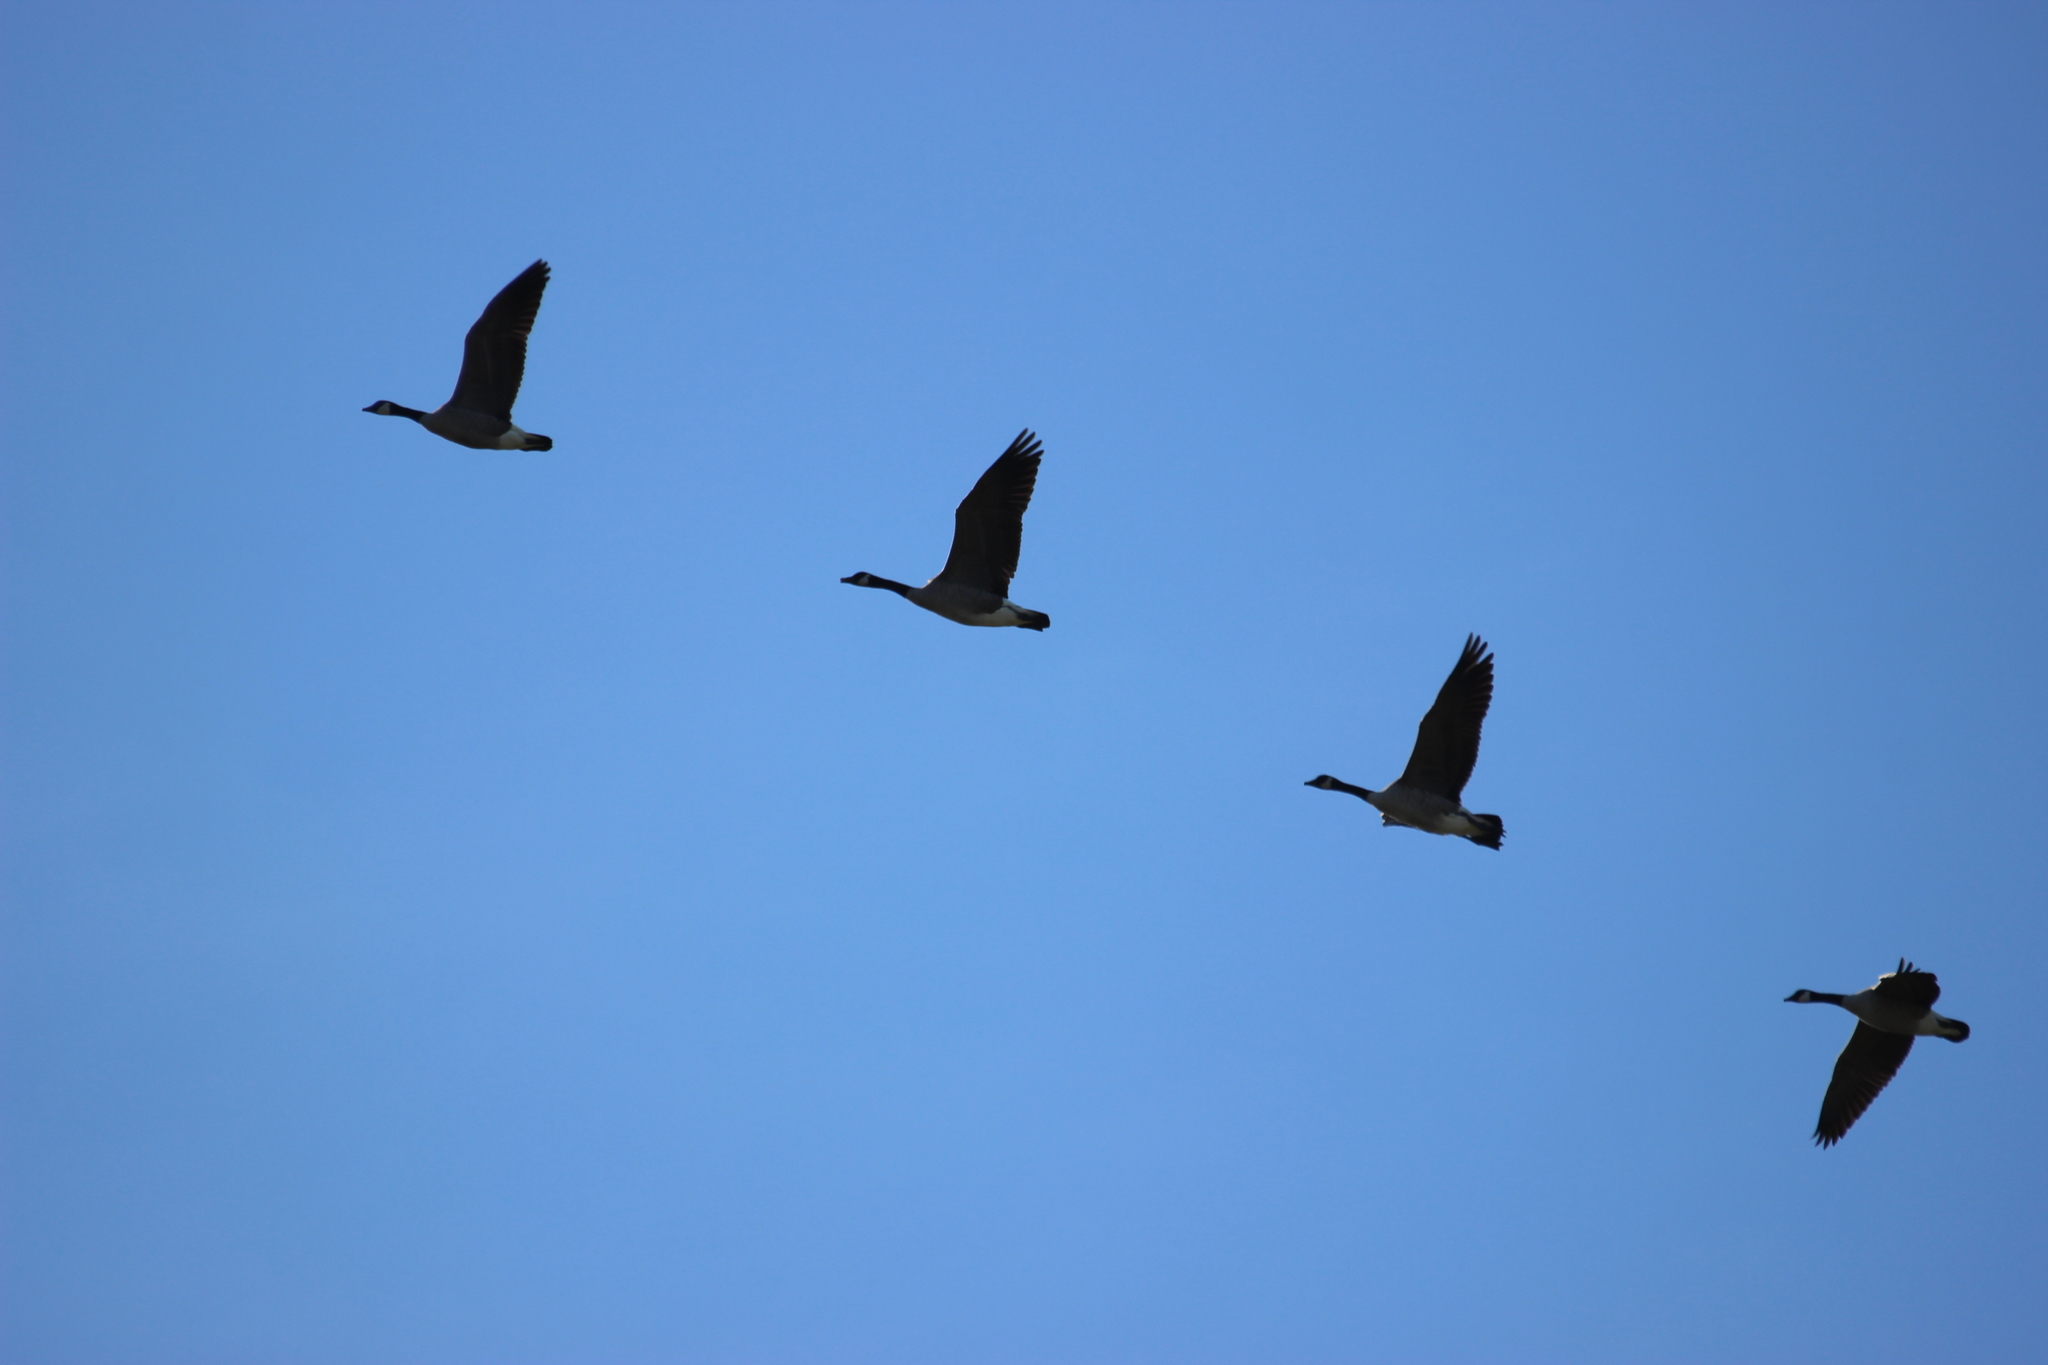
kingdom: Animalia
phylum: Chordata
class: Aves
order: Anseriformes
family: Anatidae
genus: Branta
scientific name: Branta canadensis
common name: Canada goose
